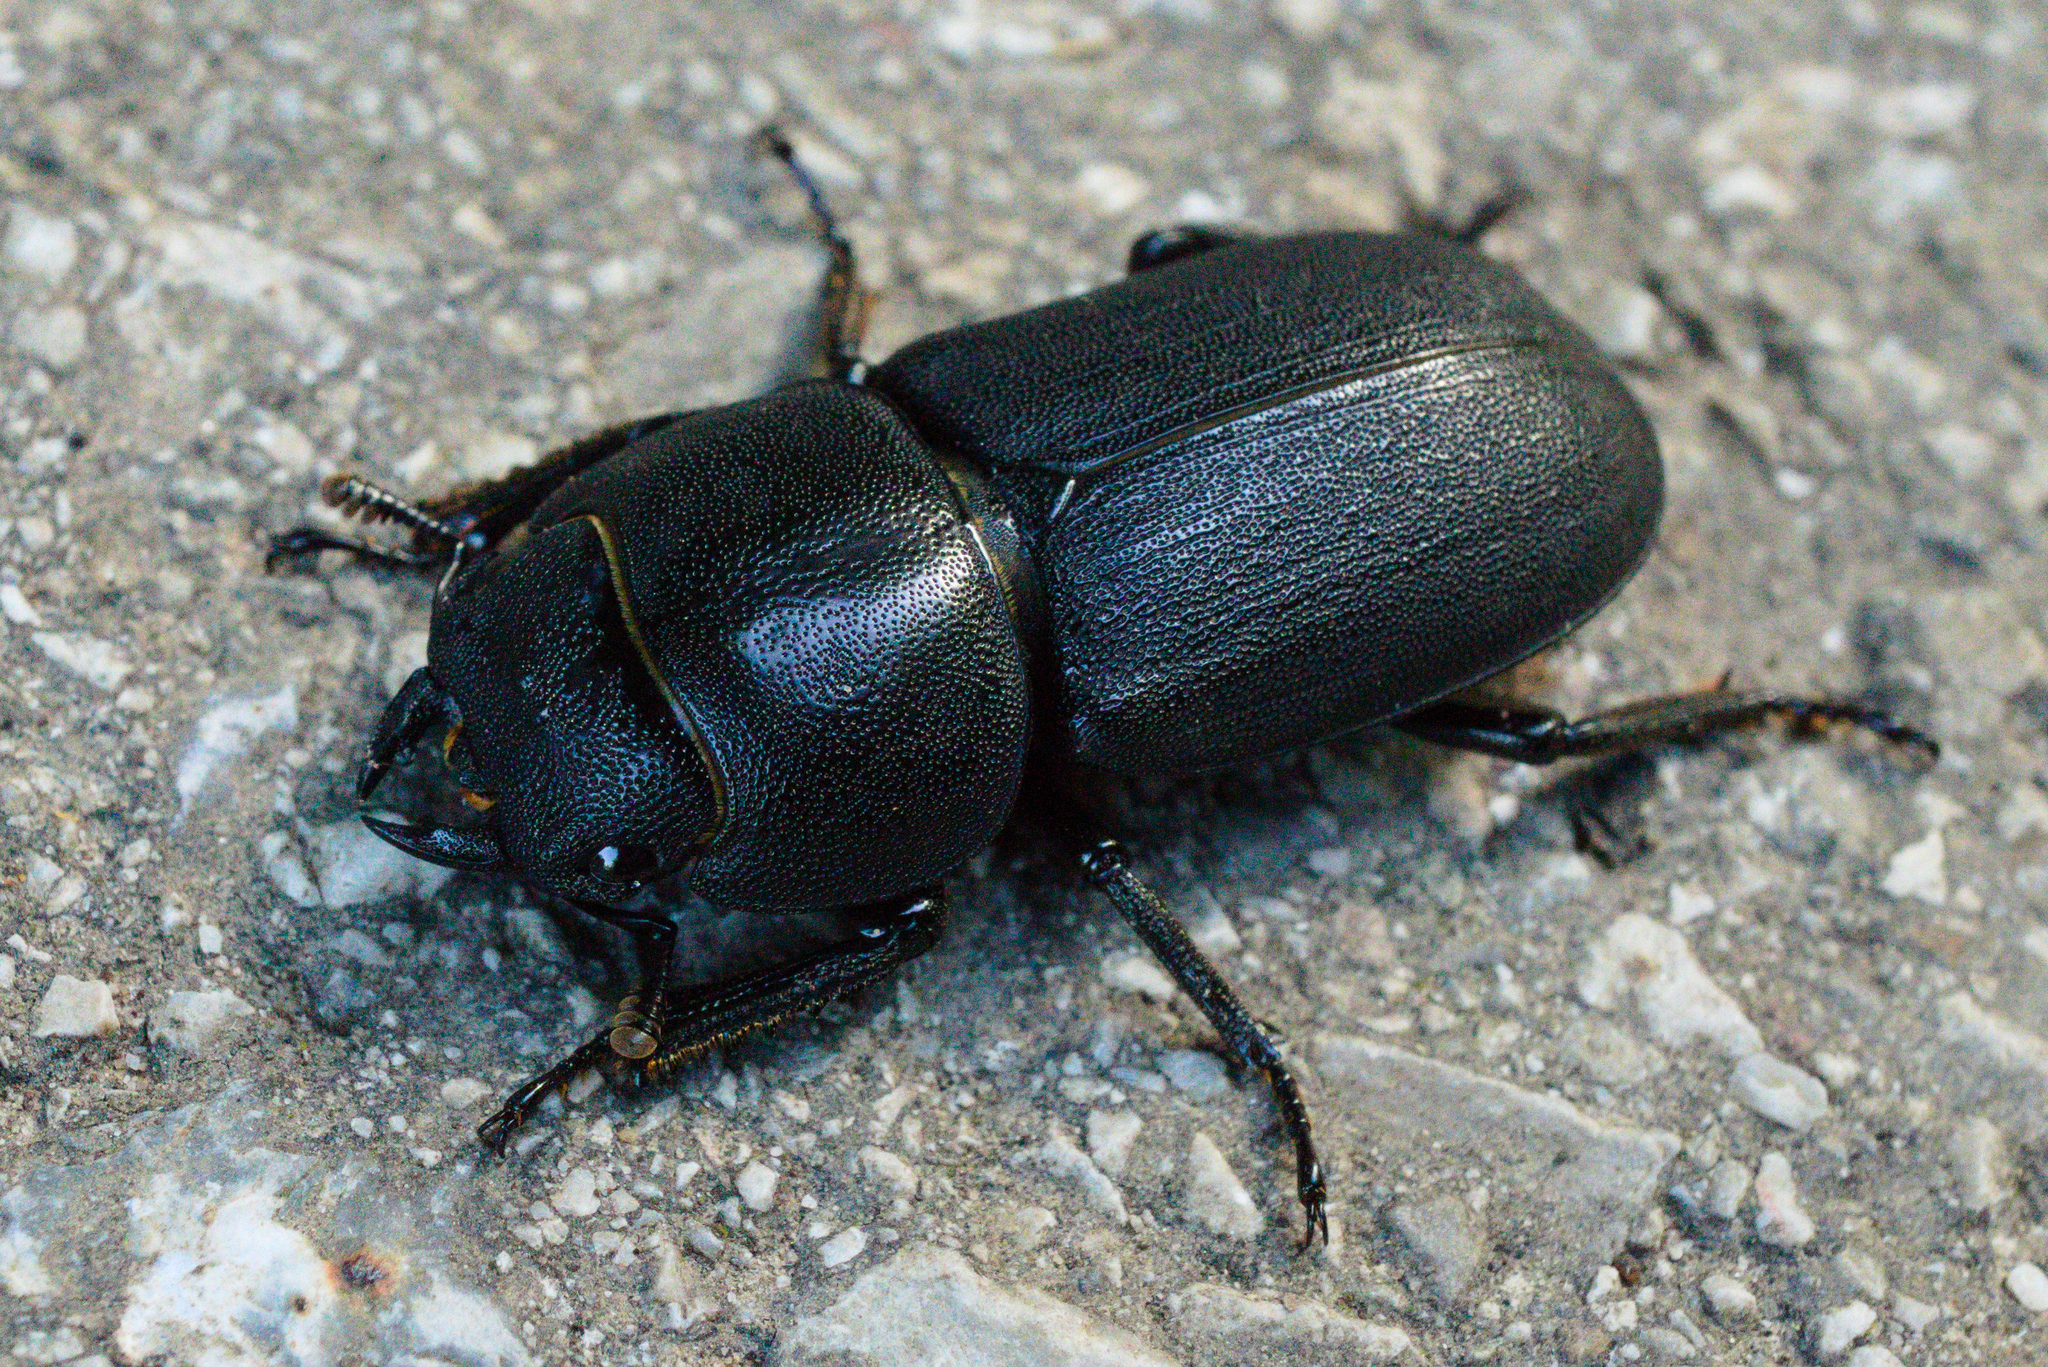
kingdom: Animalia
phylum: Arthropoda
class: Insecta
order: Coleoptera
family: Lucanidae
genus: Dorcus
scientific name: Dorcus parallelipipedus
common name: Lesser stag beetle
